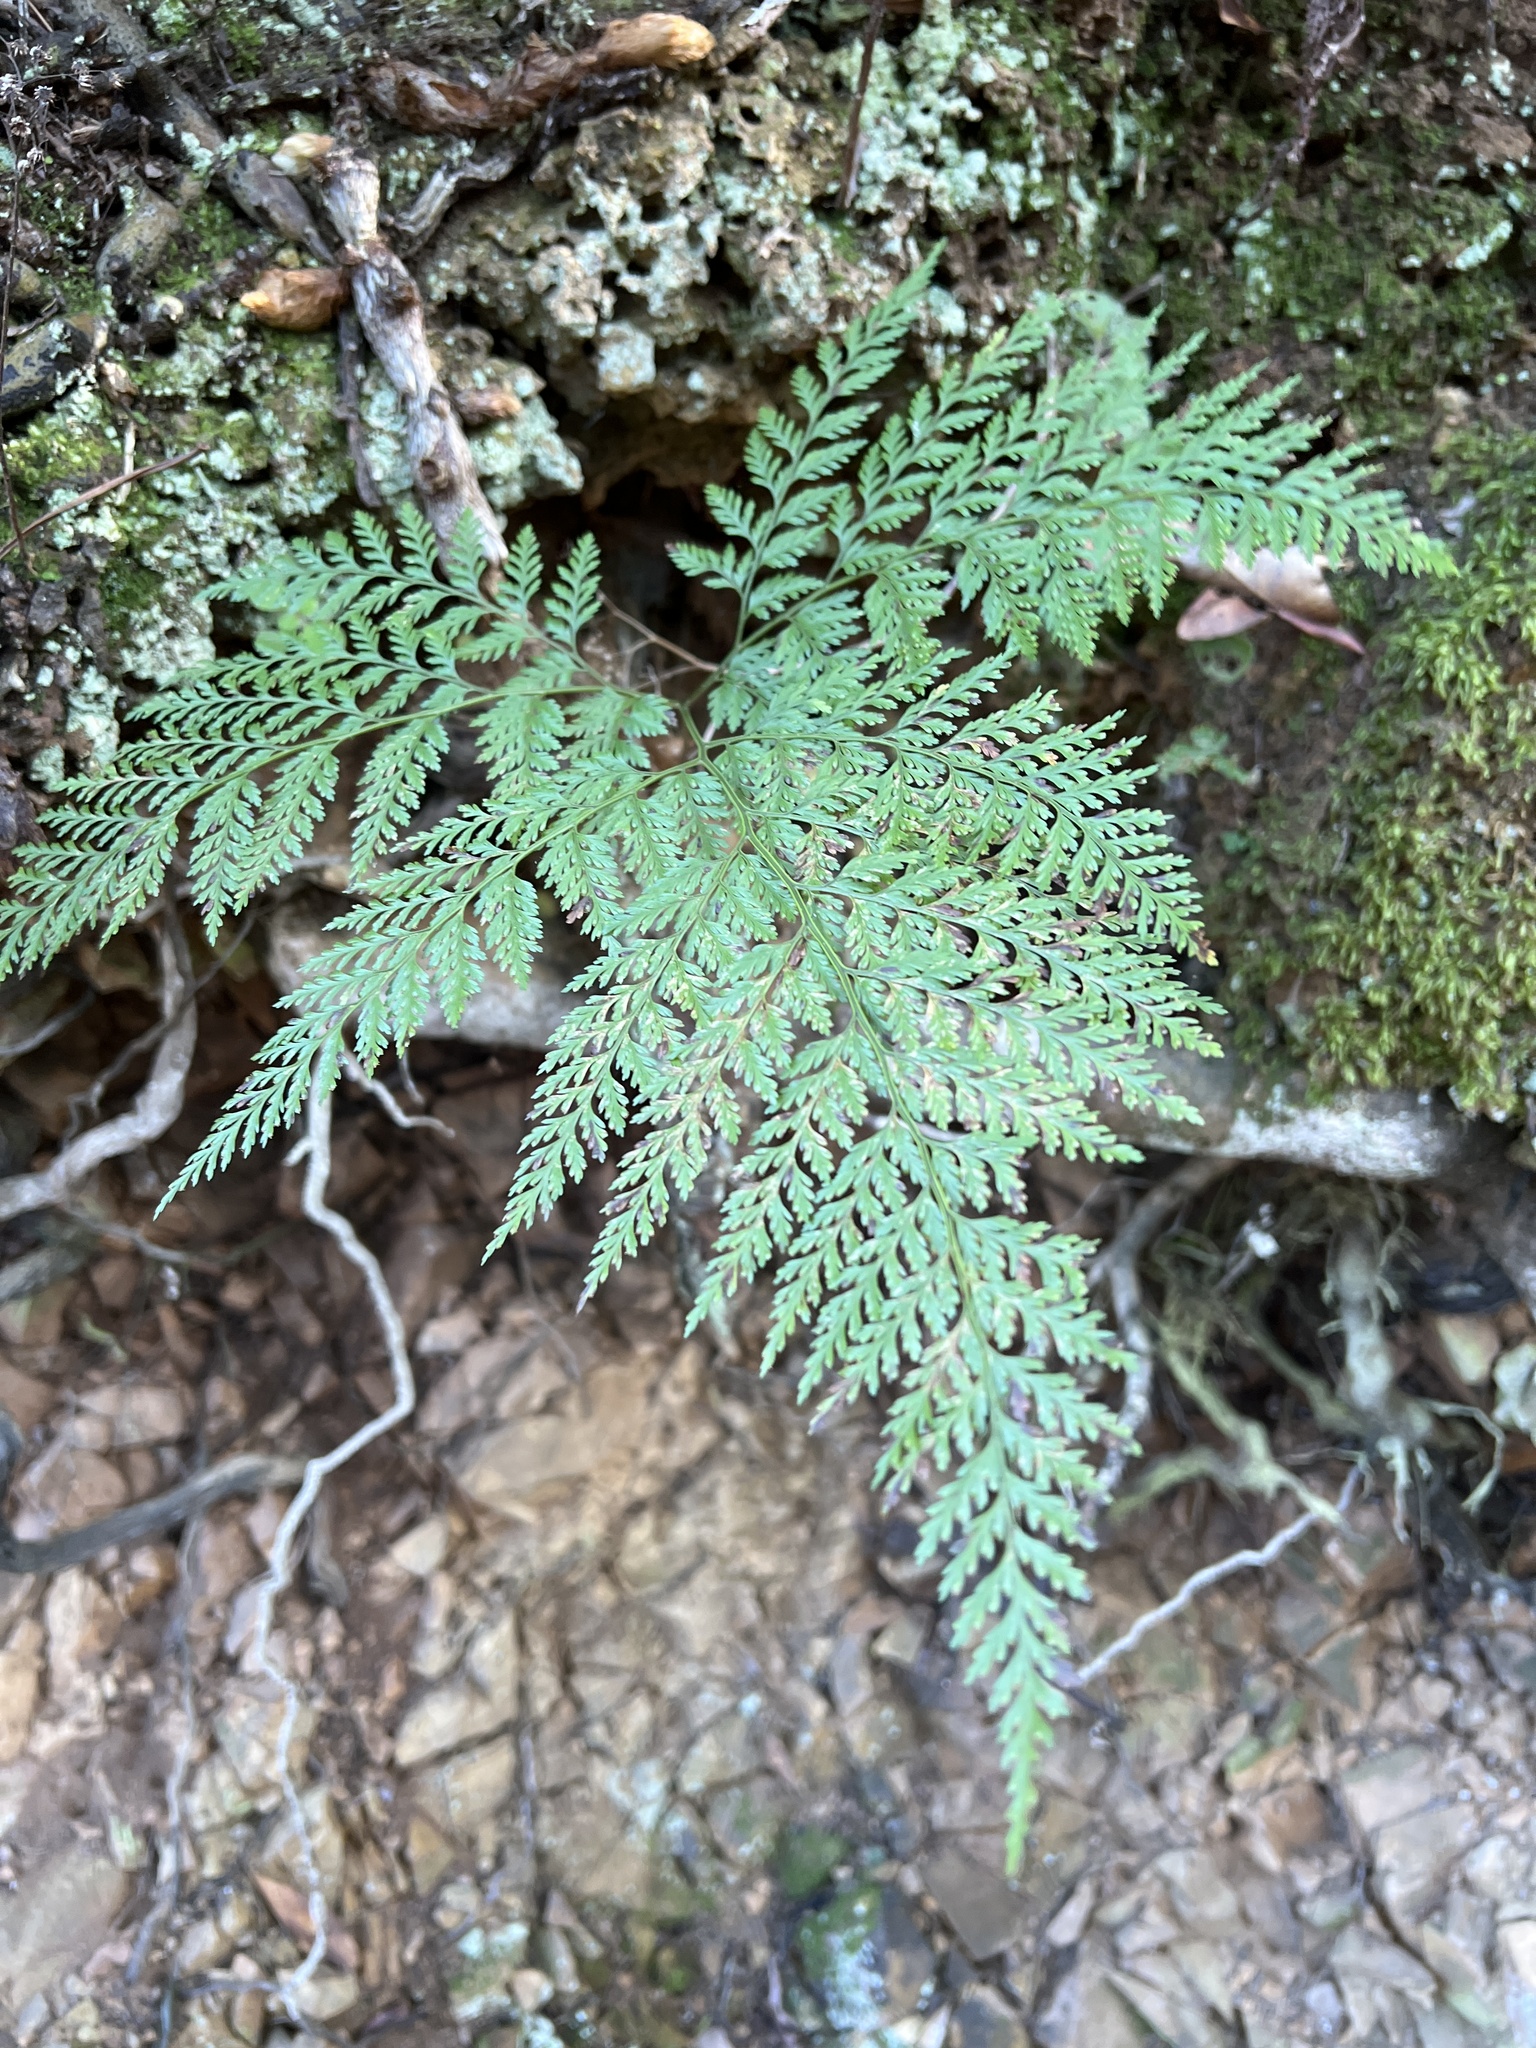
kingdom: Plantae
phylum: Tracheophyta
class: Polypodiopsida
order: Polypodiales
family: Davalliaceae
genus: Davallia
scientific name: Davallia canariensis
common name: Hare's-foot fern
